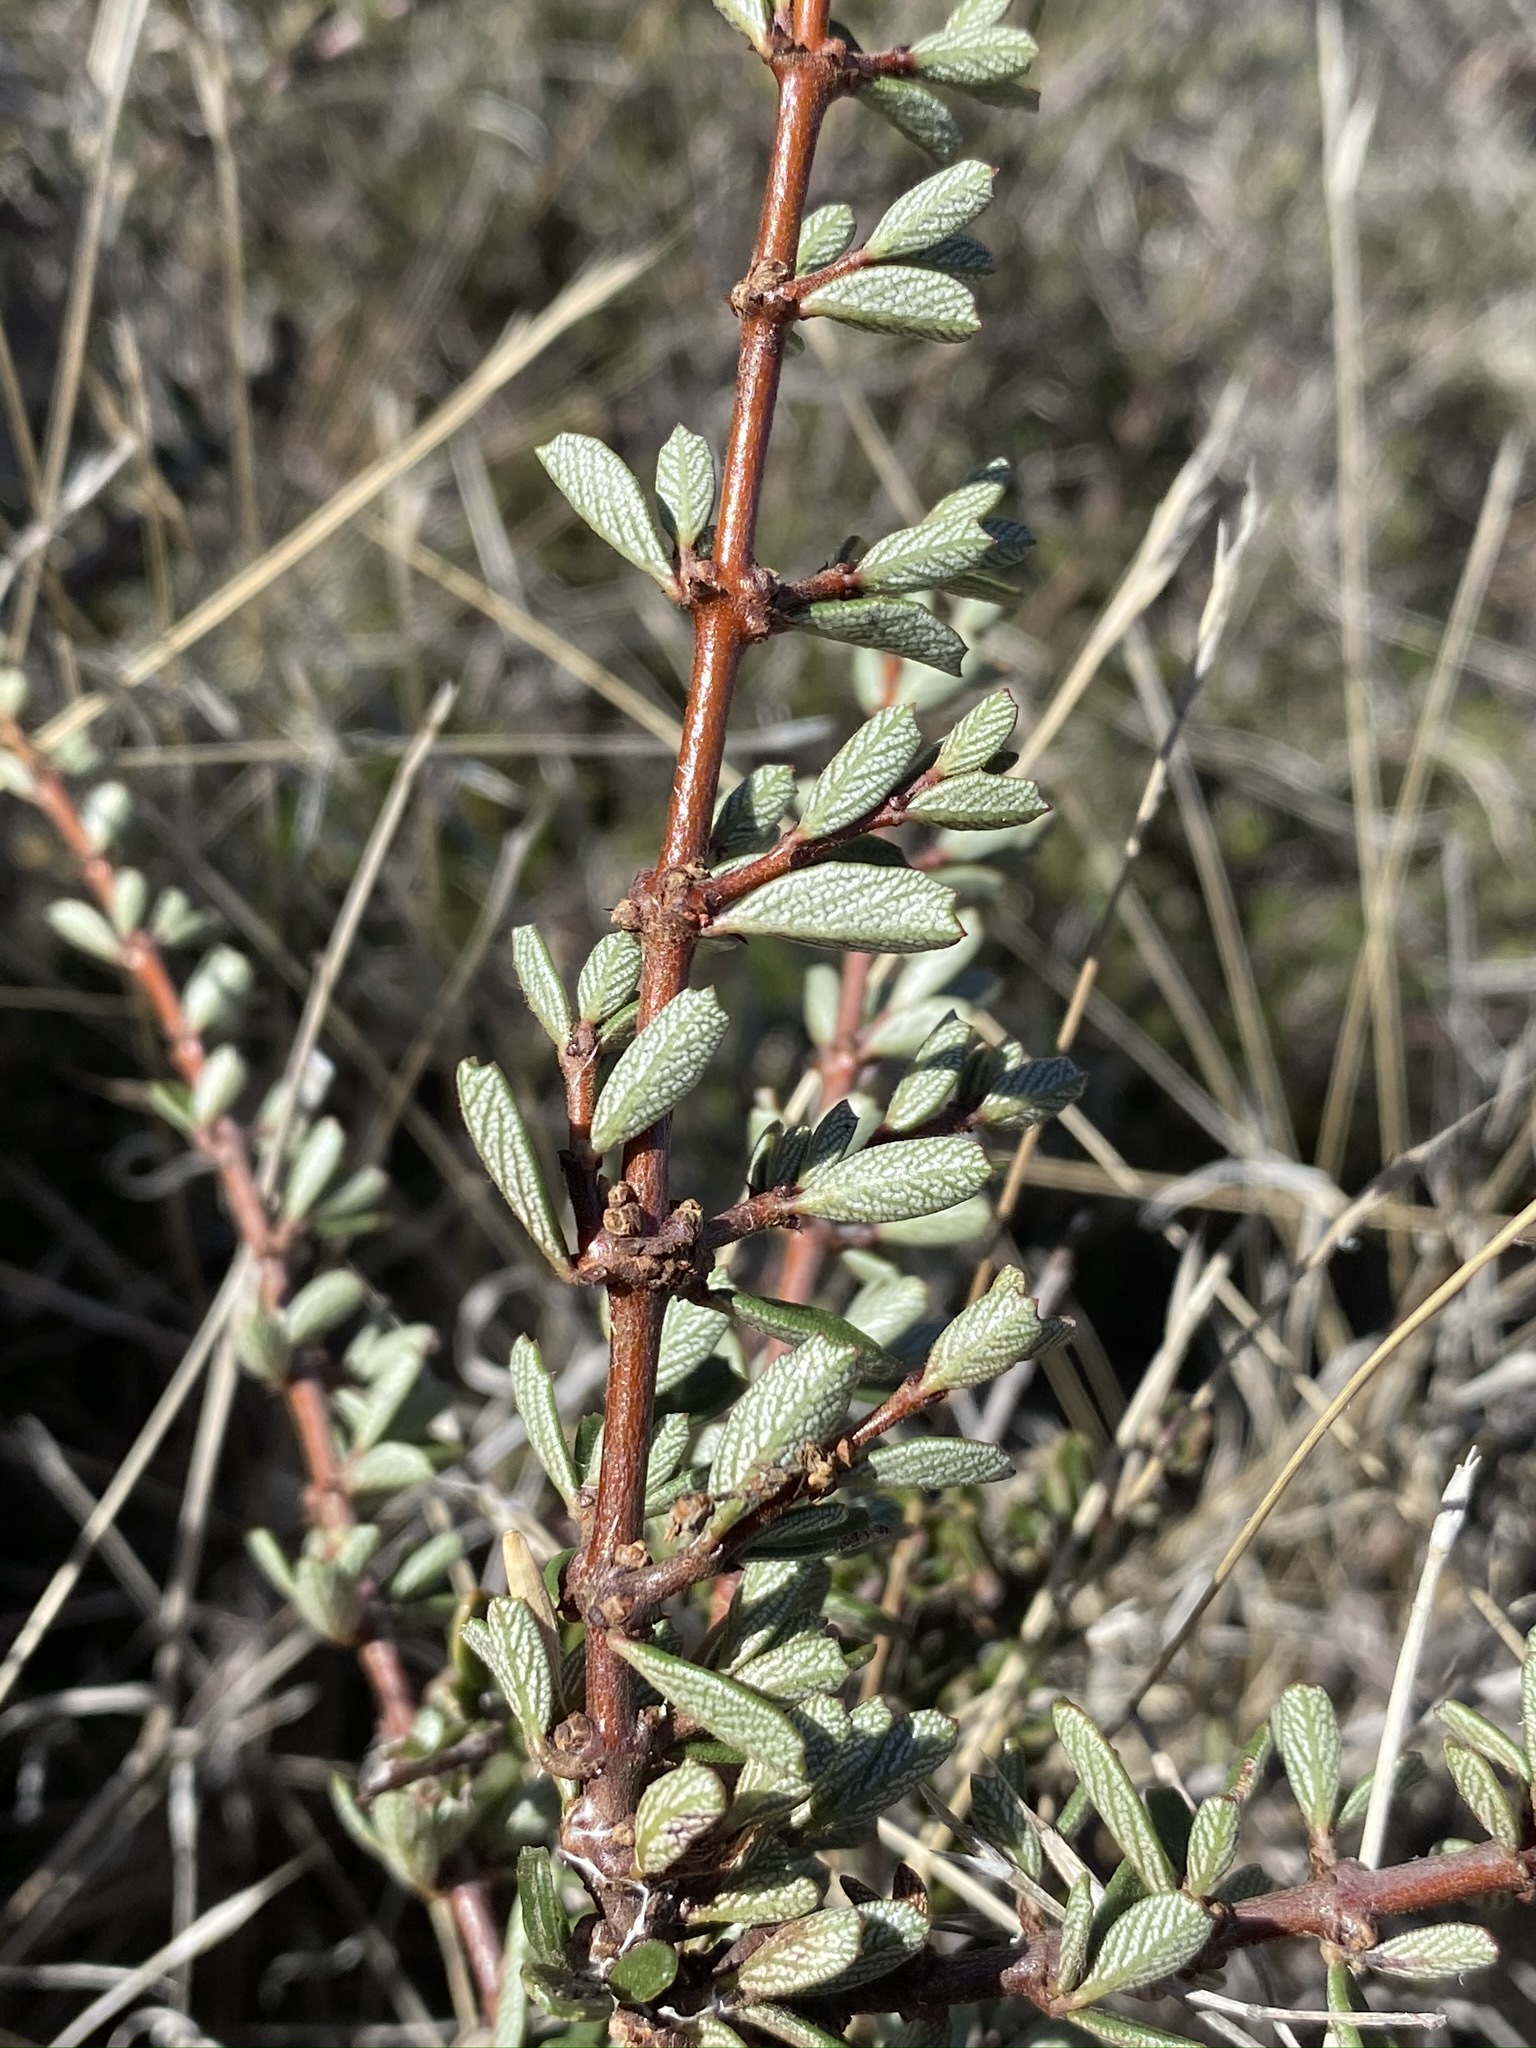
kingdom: Plantae
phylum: Tracheophyta
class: Magnoliopsida
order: Rosales
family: Rhamnaceae
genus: Ceanothus
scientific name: Ceanothus roderickii
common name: Pine hill ceanothus
